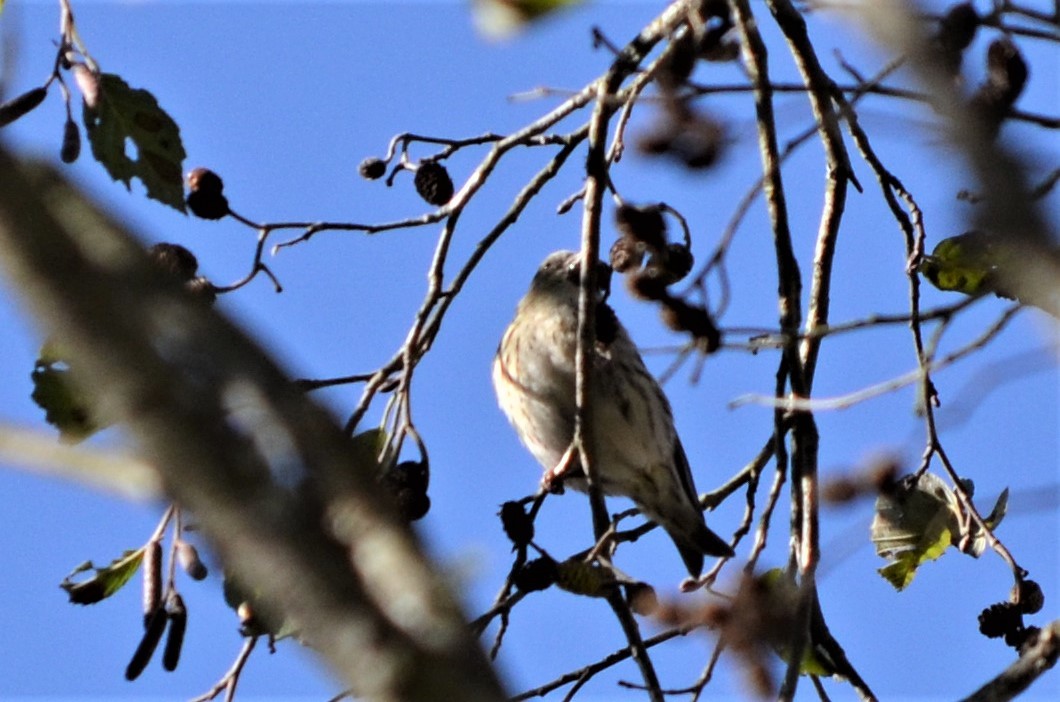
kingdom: Animalia
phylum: Chordata
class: Aves
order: Passeriformes
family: Fringillidae
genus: Spinus
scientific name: Spinus spinus
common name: Eurasian siskin
